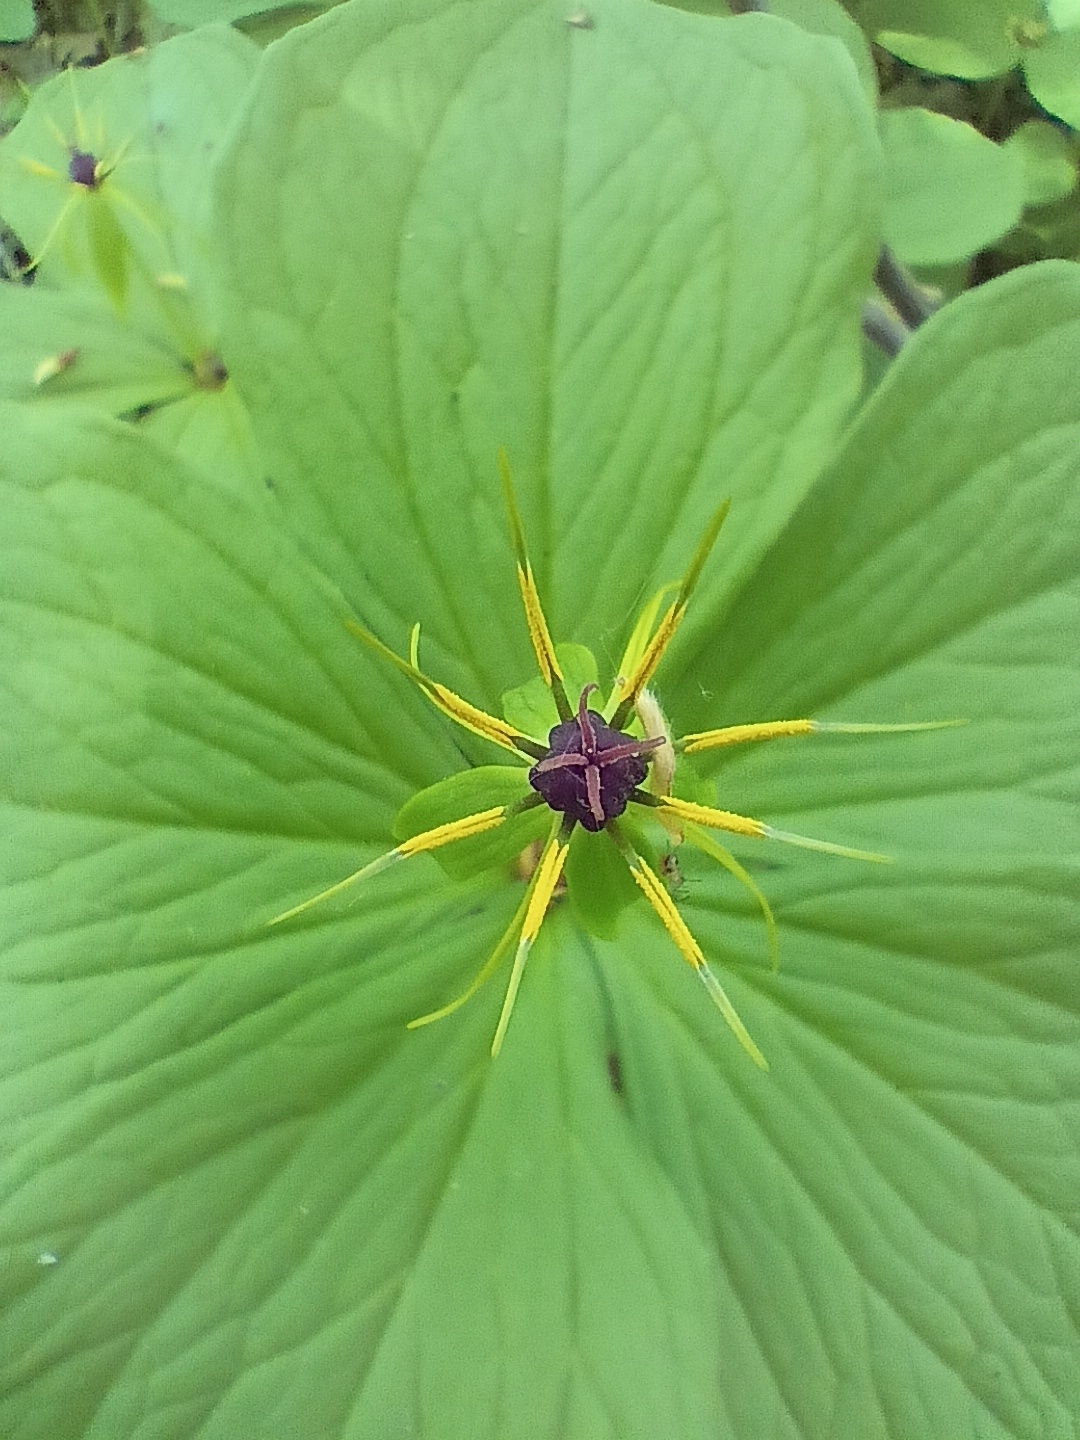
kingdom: Plantae
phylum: Tracheophyta
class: Liliopsida
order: Liliales
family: Melanthiaceae
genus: Paris
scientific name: Paris quadrifolia
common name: Herb-paris
